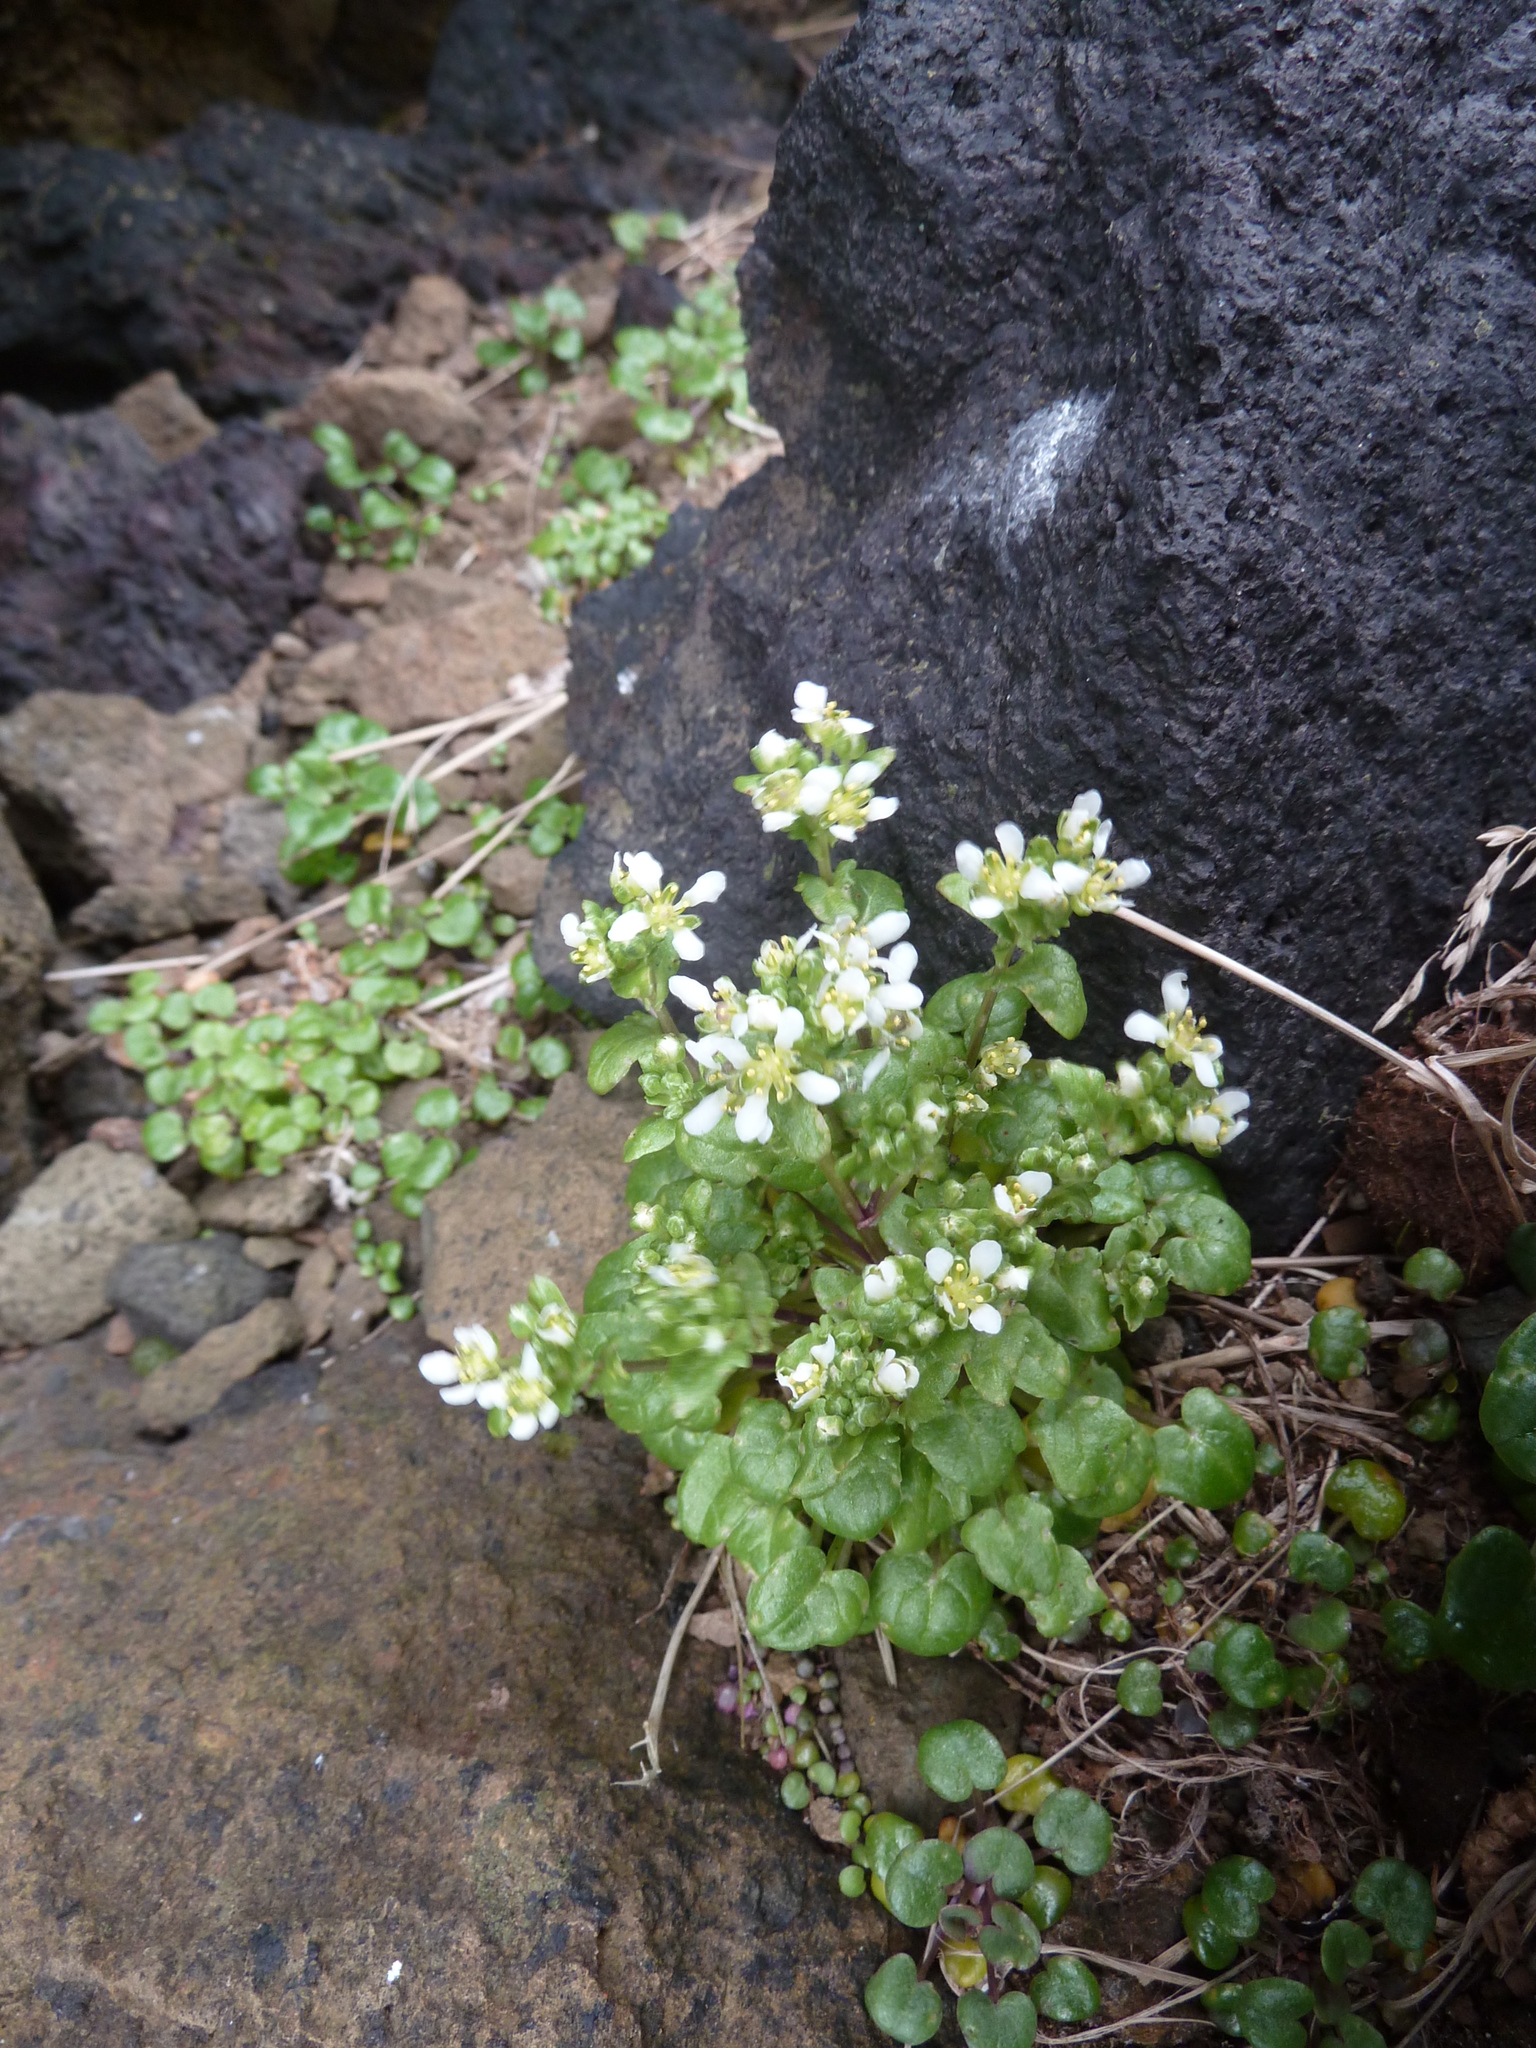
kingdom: Plantae
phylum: Tracheophyta
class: Magnoliopsida
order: Brassicales
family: Brassicaceae
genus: Cochlearia
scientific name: Cochlearia officinalis
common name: Scurvy-grass
